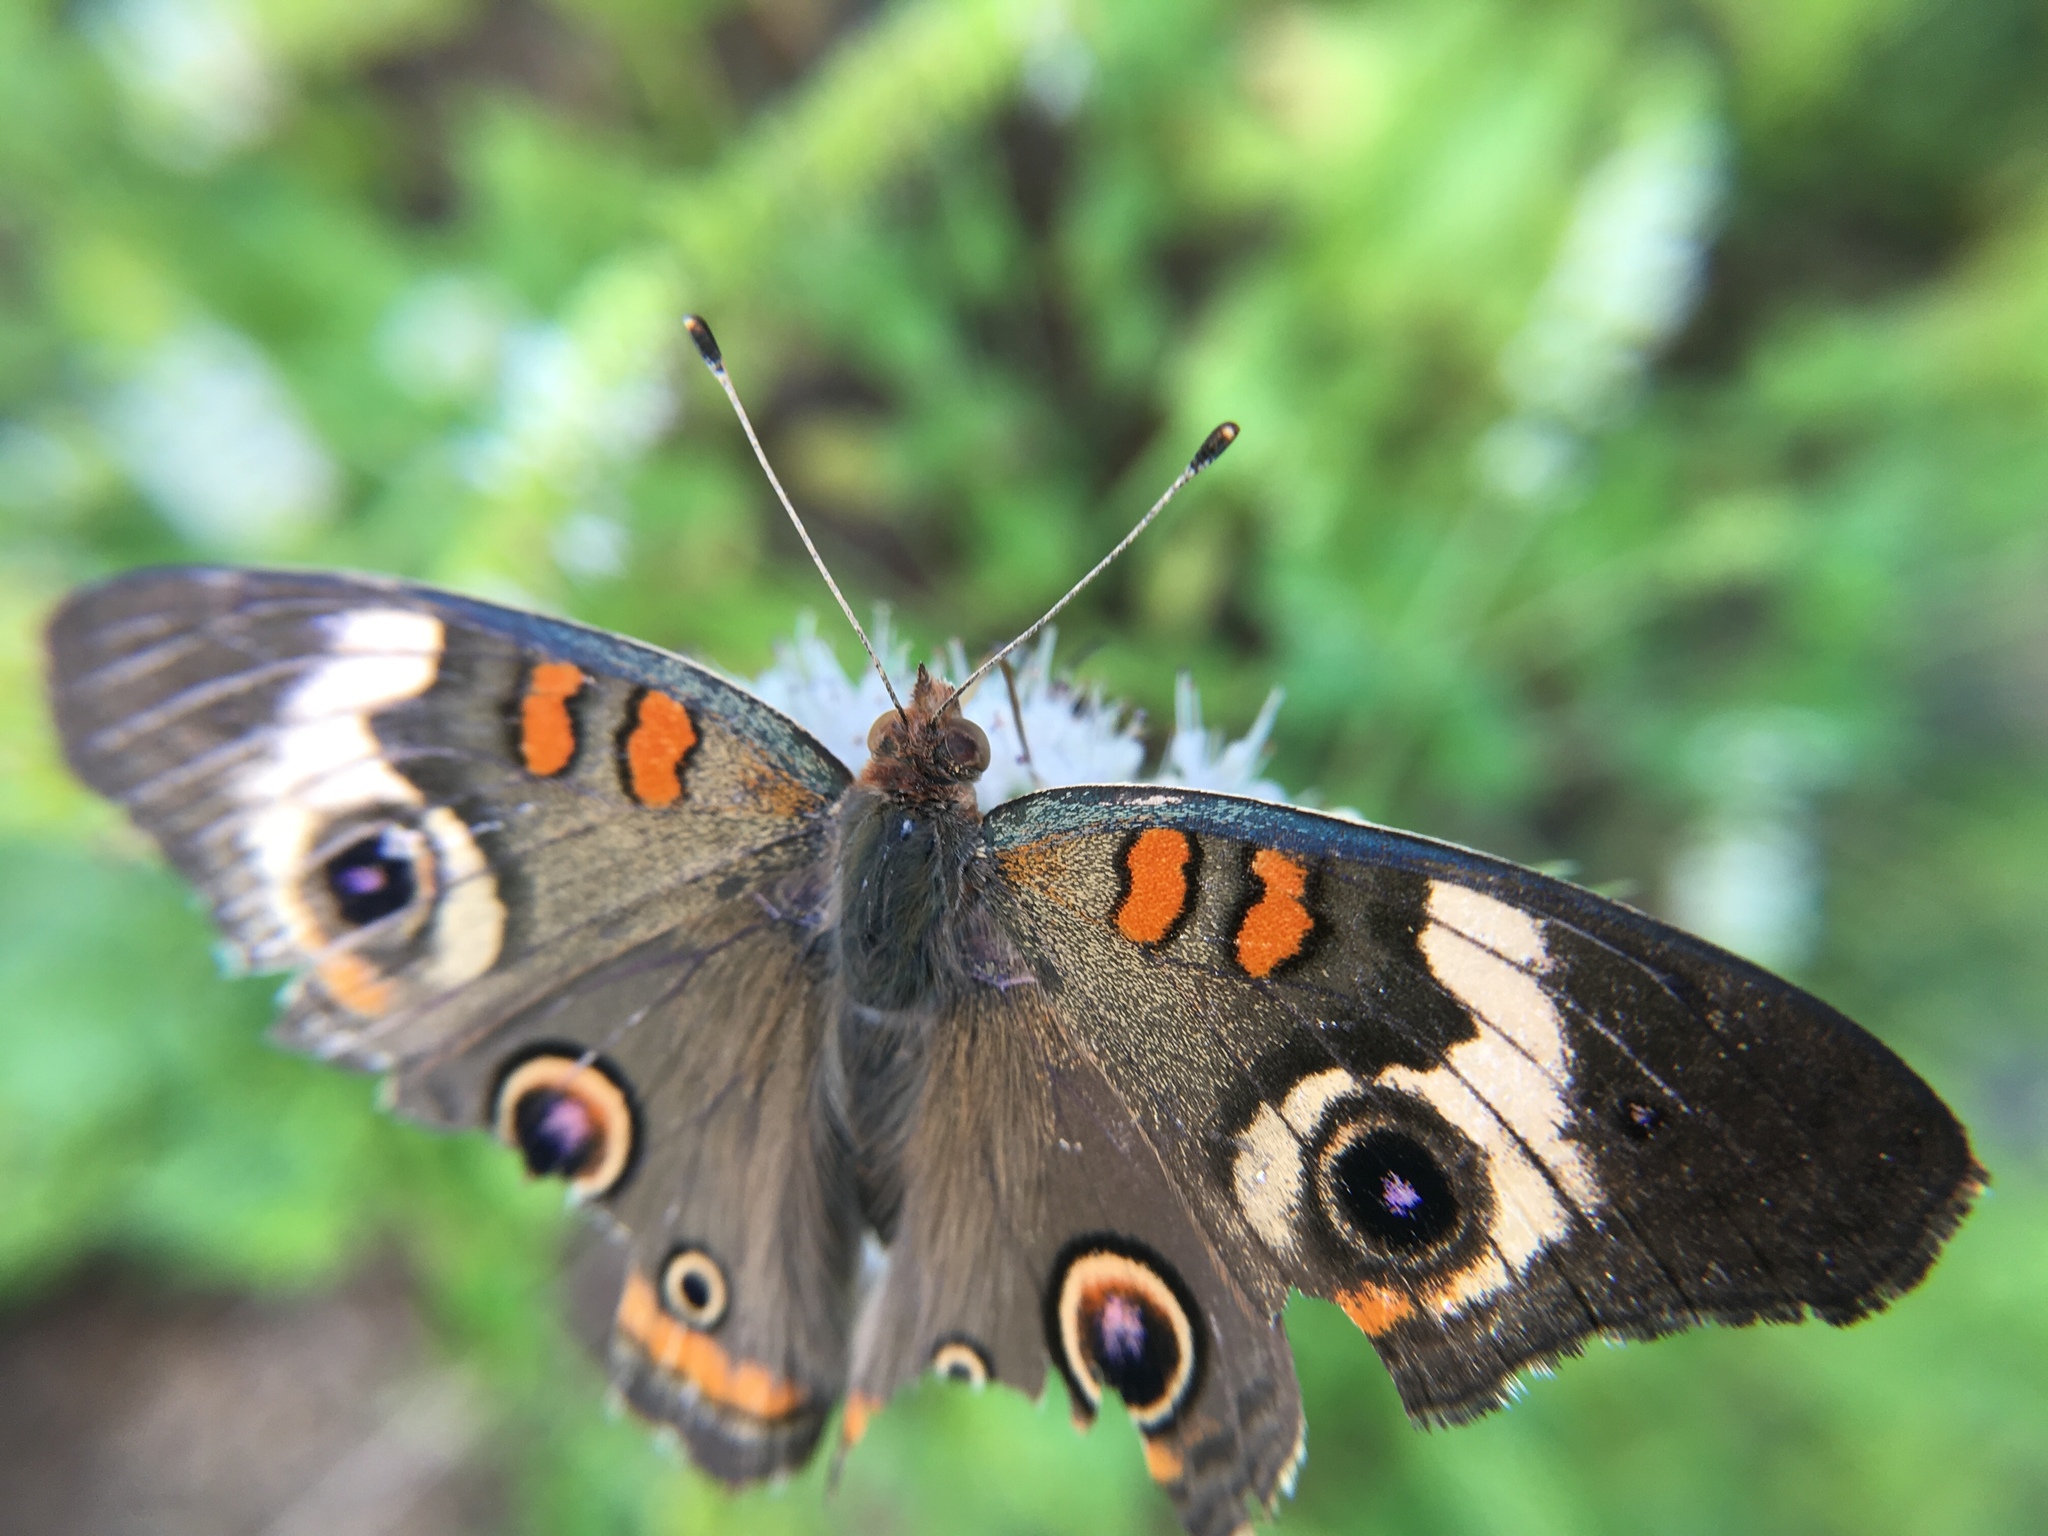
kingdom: Animalia
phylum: Arthropoda
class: Insecta
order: Lepidoptera
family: Nymphalidae
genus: Junonia
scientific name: Junonia coenia
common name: Common buckeye
